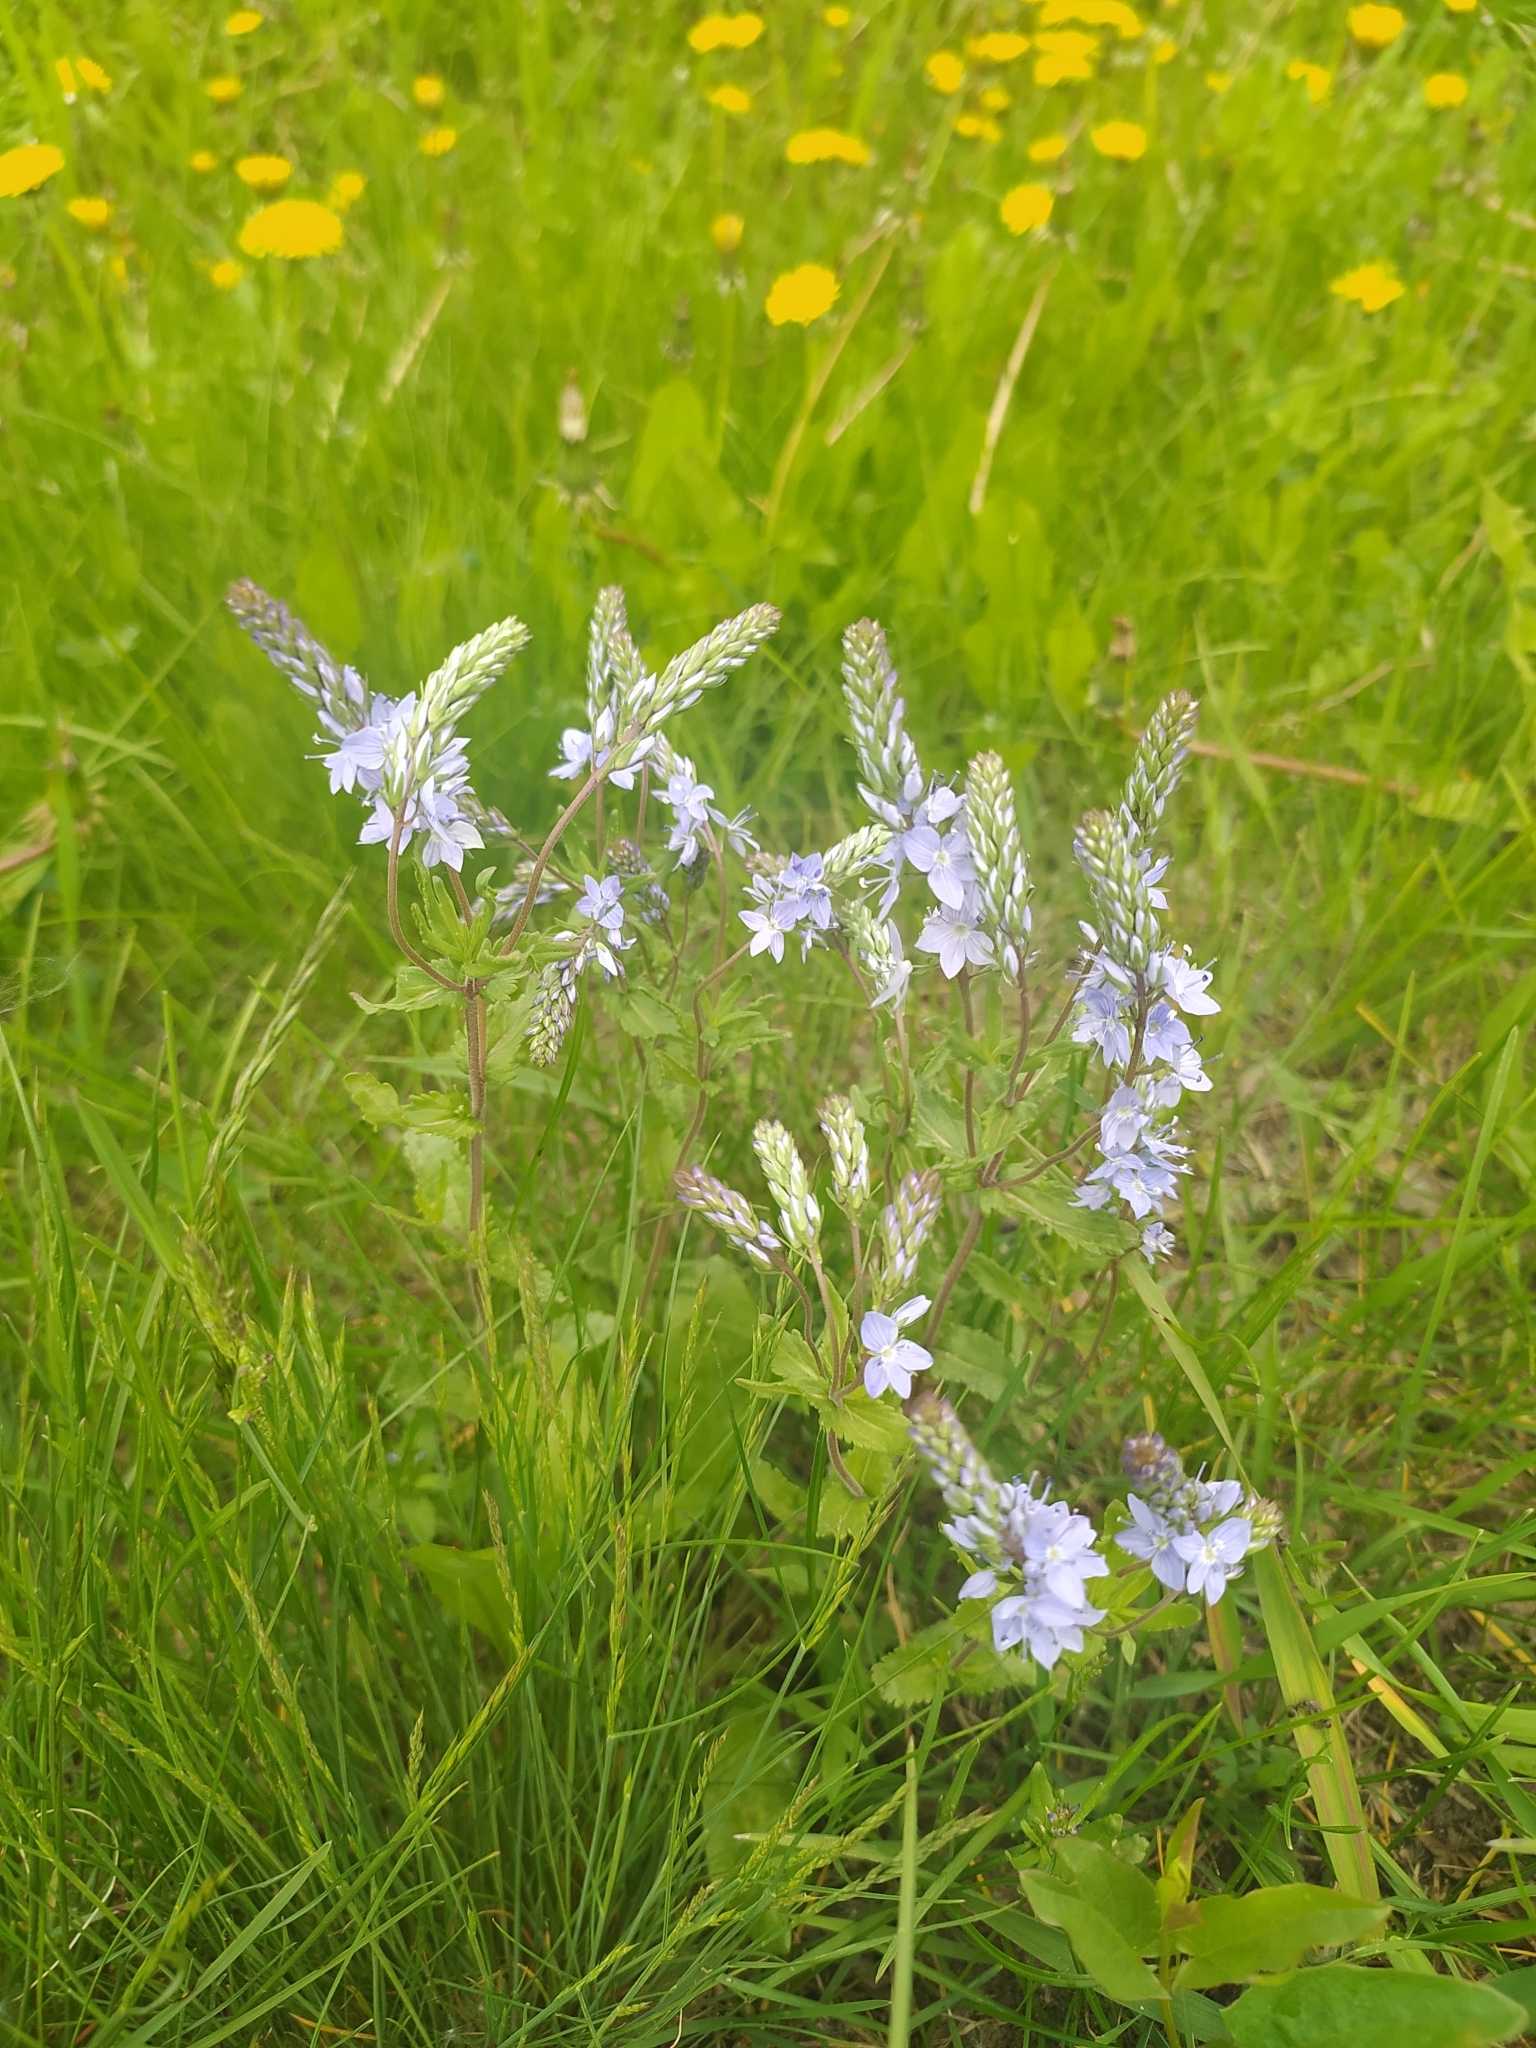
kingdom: Plantae
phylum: Tracheophyta
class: Magnoliopsida
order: Lamiales
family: Plantaginaceae
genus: Veronica
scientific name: Veronica prostrata
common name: Prostrate speedwell
